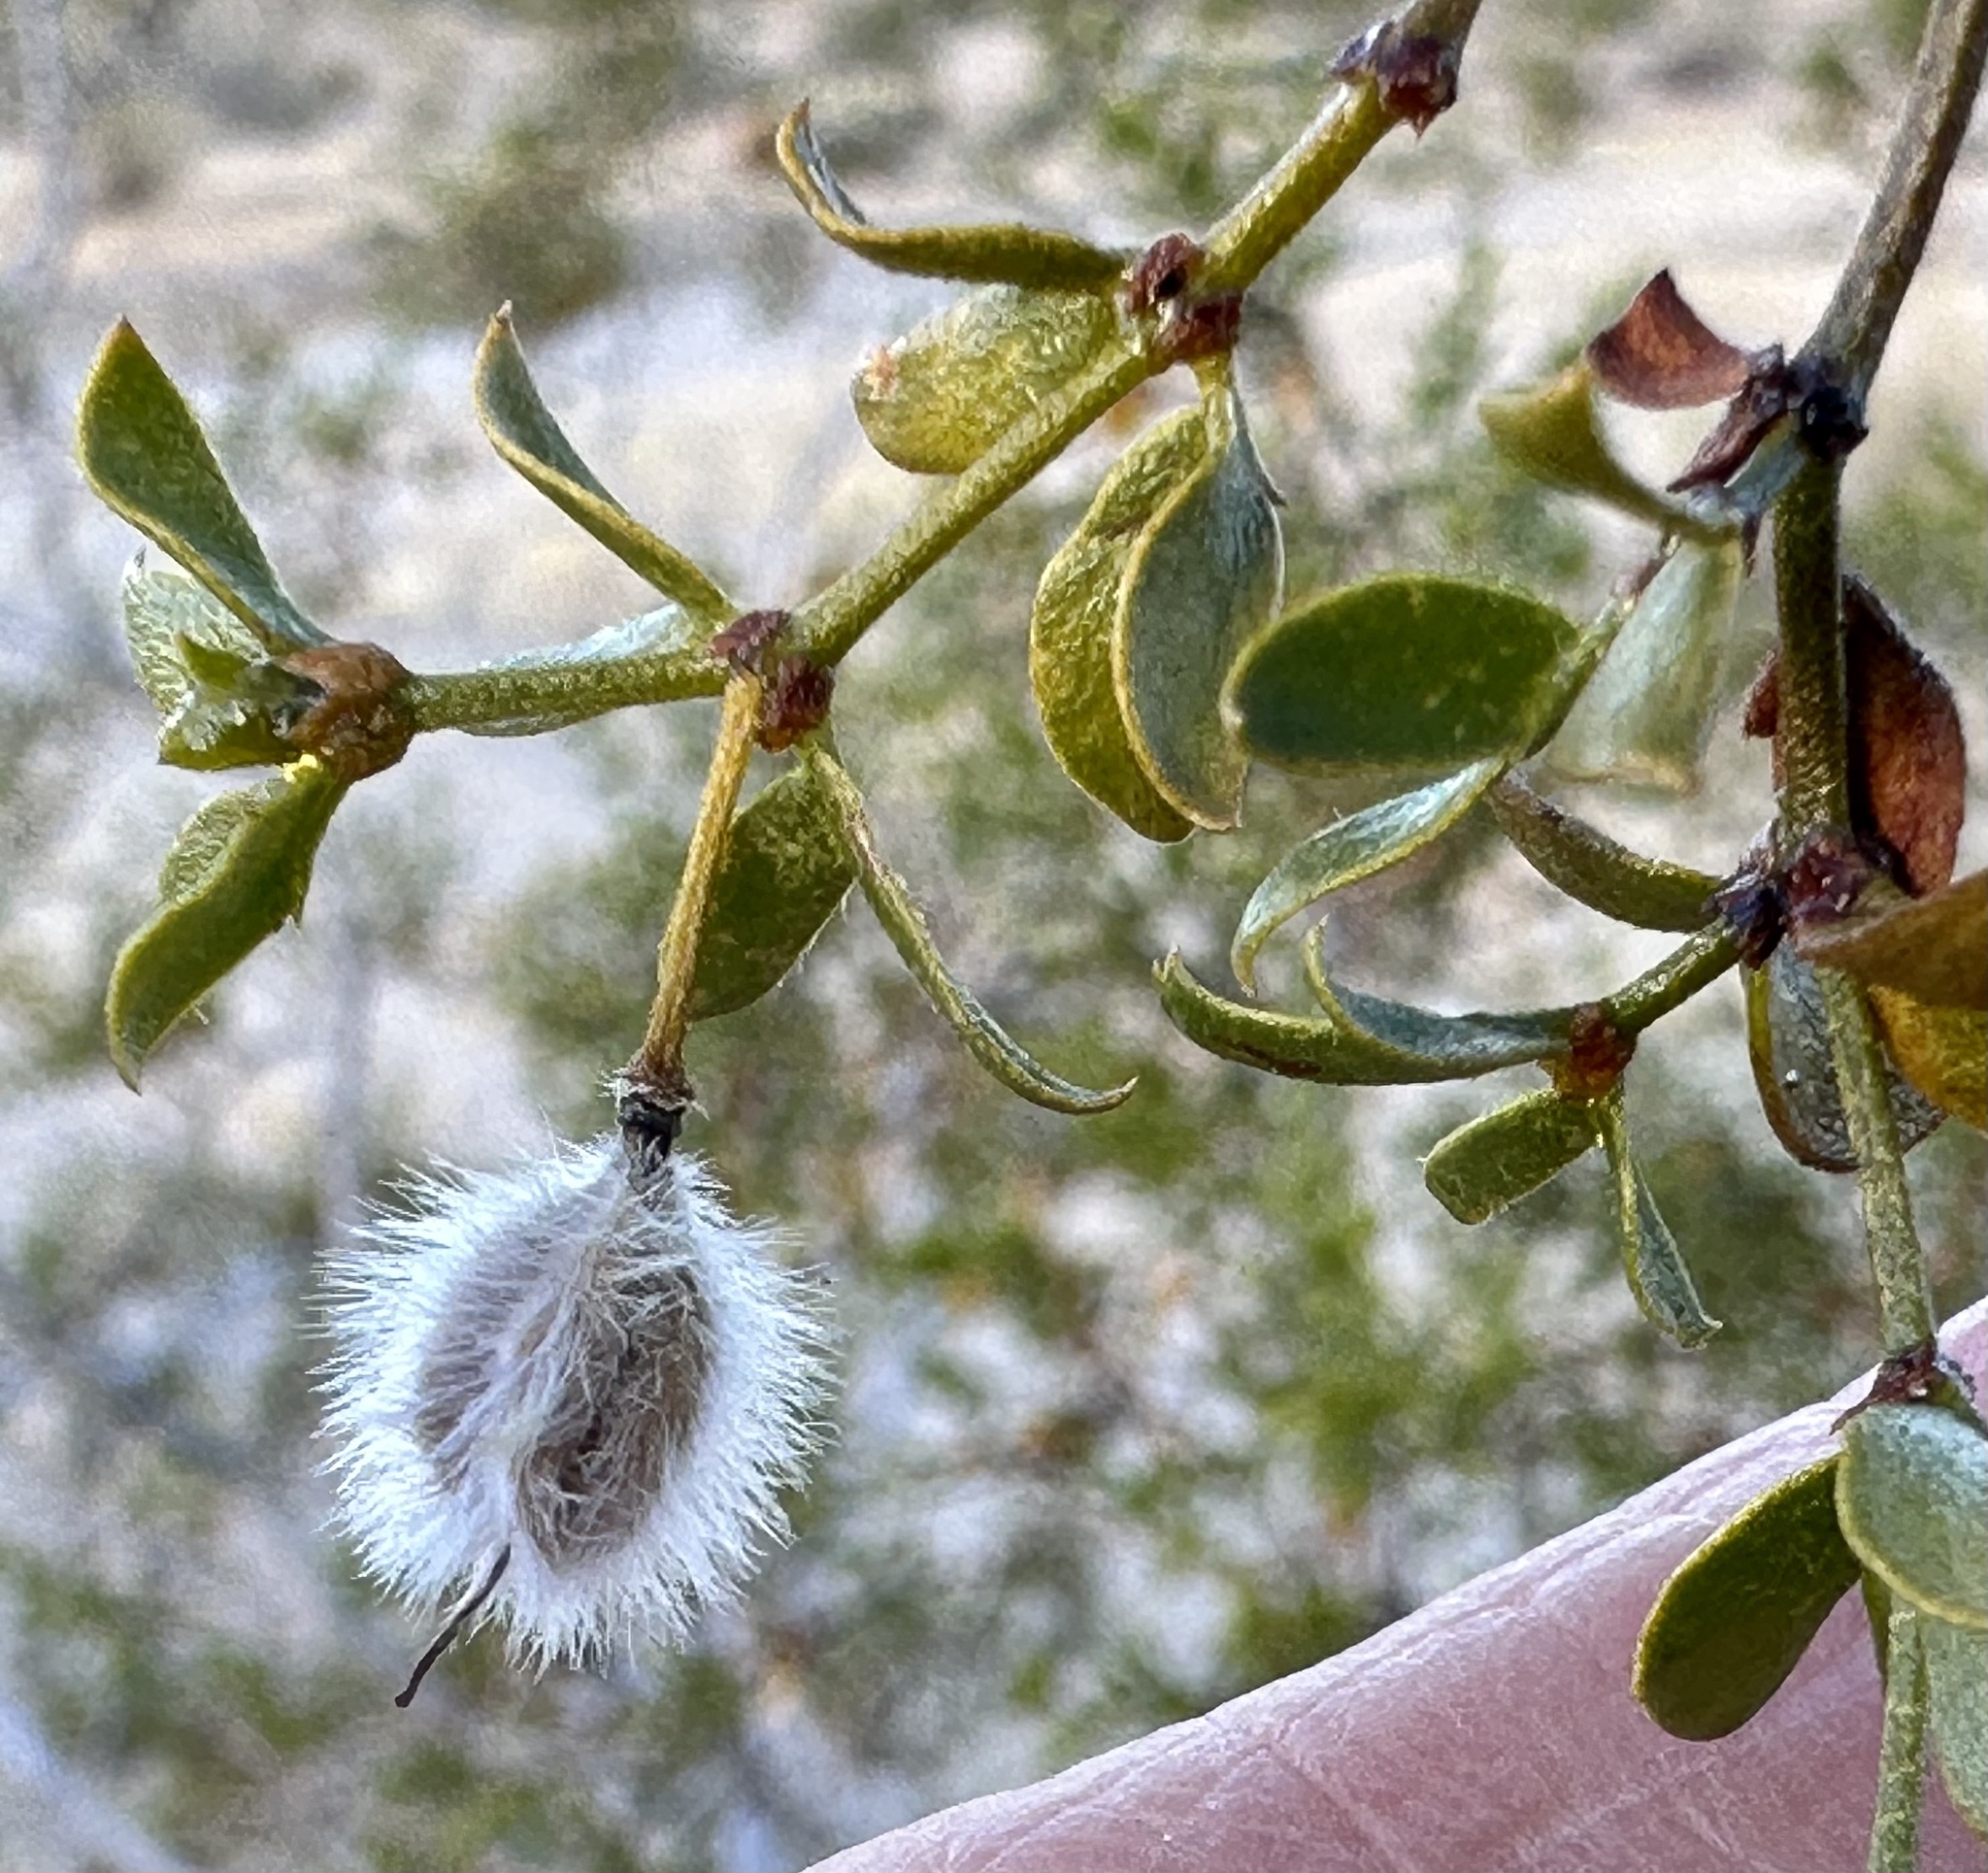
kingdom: Plantae
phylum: Tracheophyta
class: Magnoliopsida
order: Zygophyllales
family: Zygophyllaceae
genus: Larrea
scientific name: Larrea tridentata
